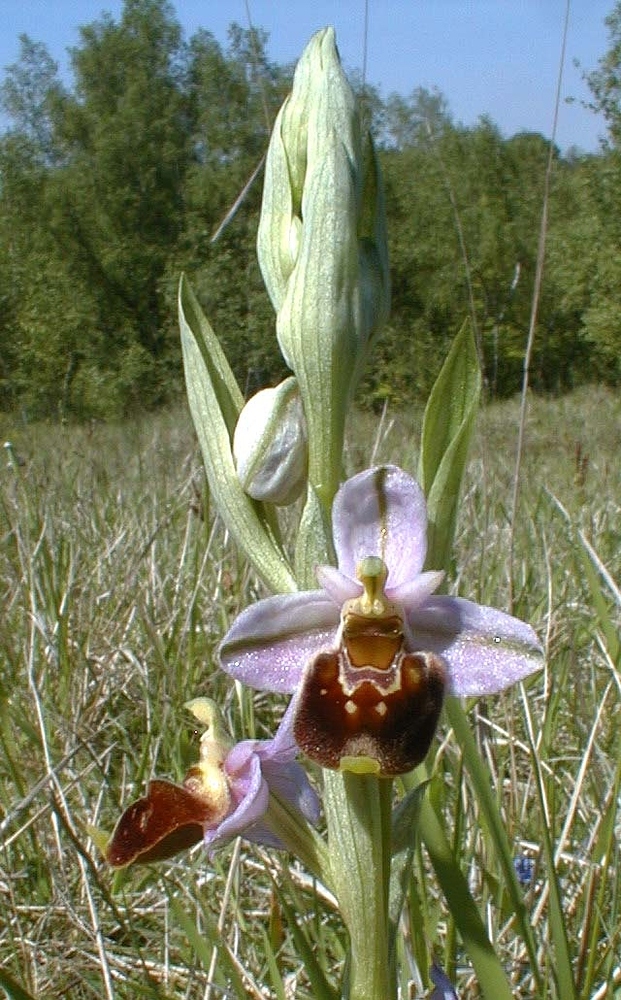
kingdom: Plantae
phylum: Tracheophyta
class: Liliopsida
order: Asparagales
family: Orchidaceae
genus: Ophrys
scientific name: Ophrys holosericea
